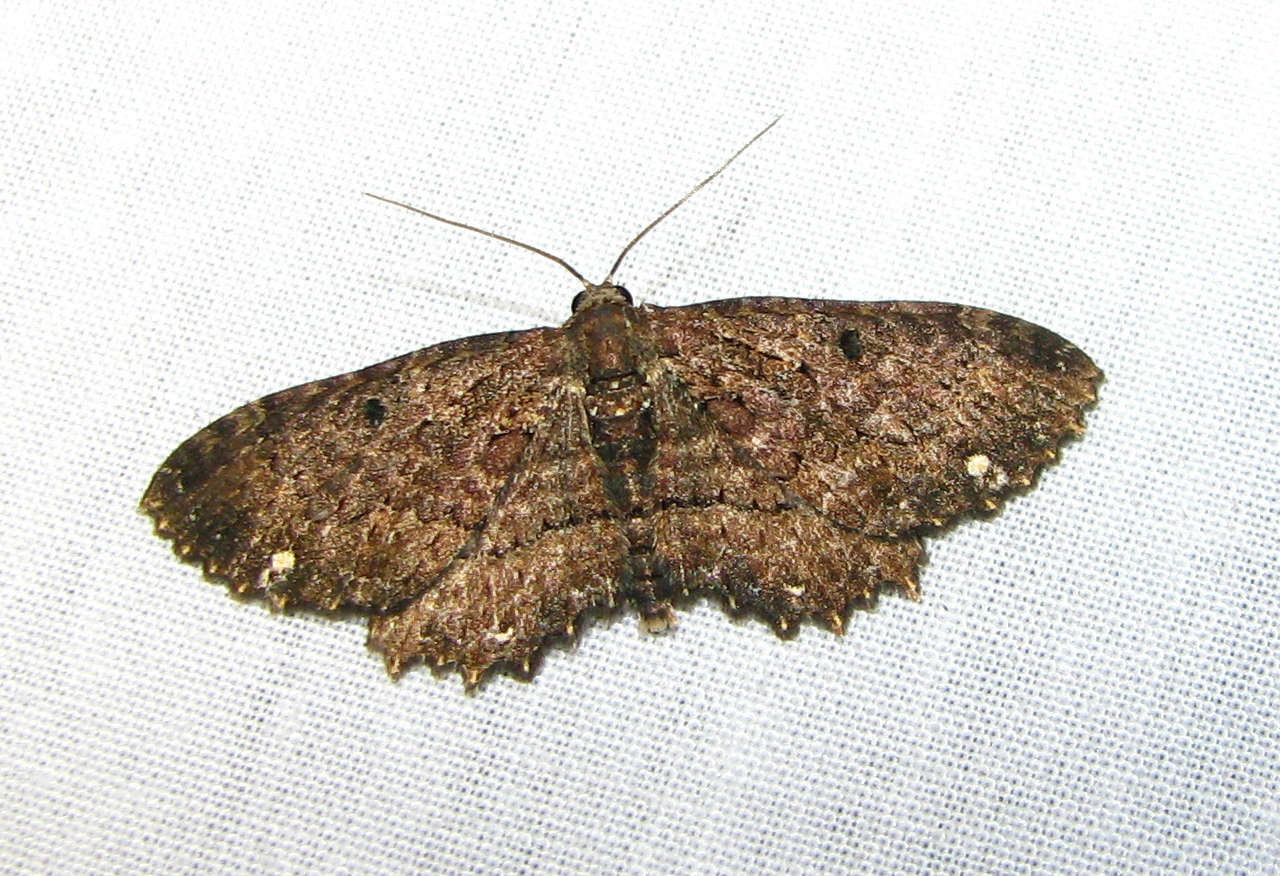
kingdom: Animalia
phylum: Arthropoda
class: Insecta
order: Lepidoptera
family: Geometridae
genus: Eccymatoge
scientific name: Eccymatoge callizona
